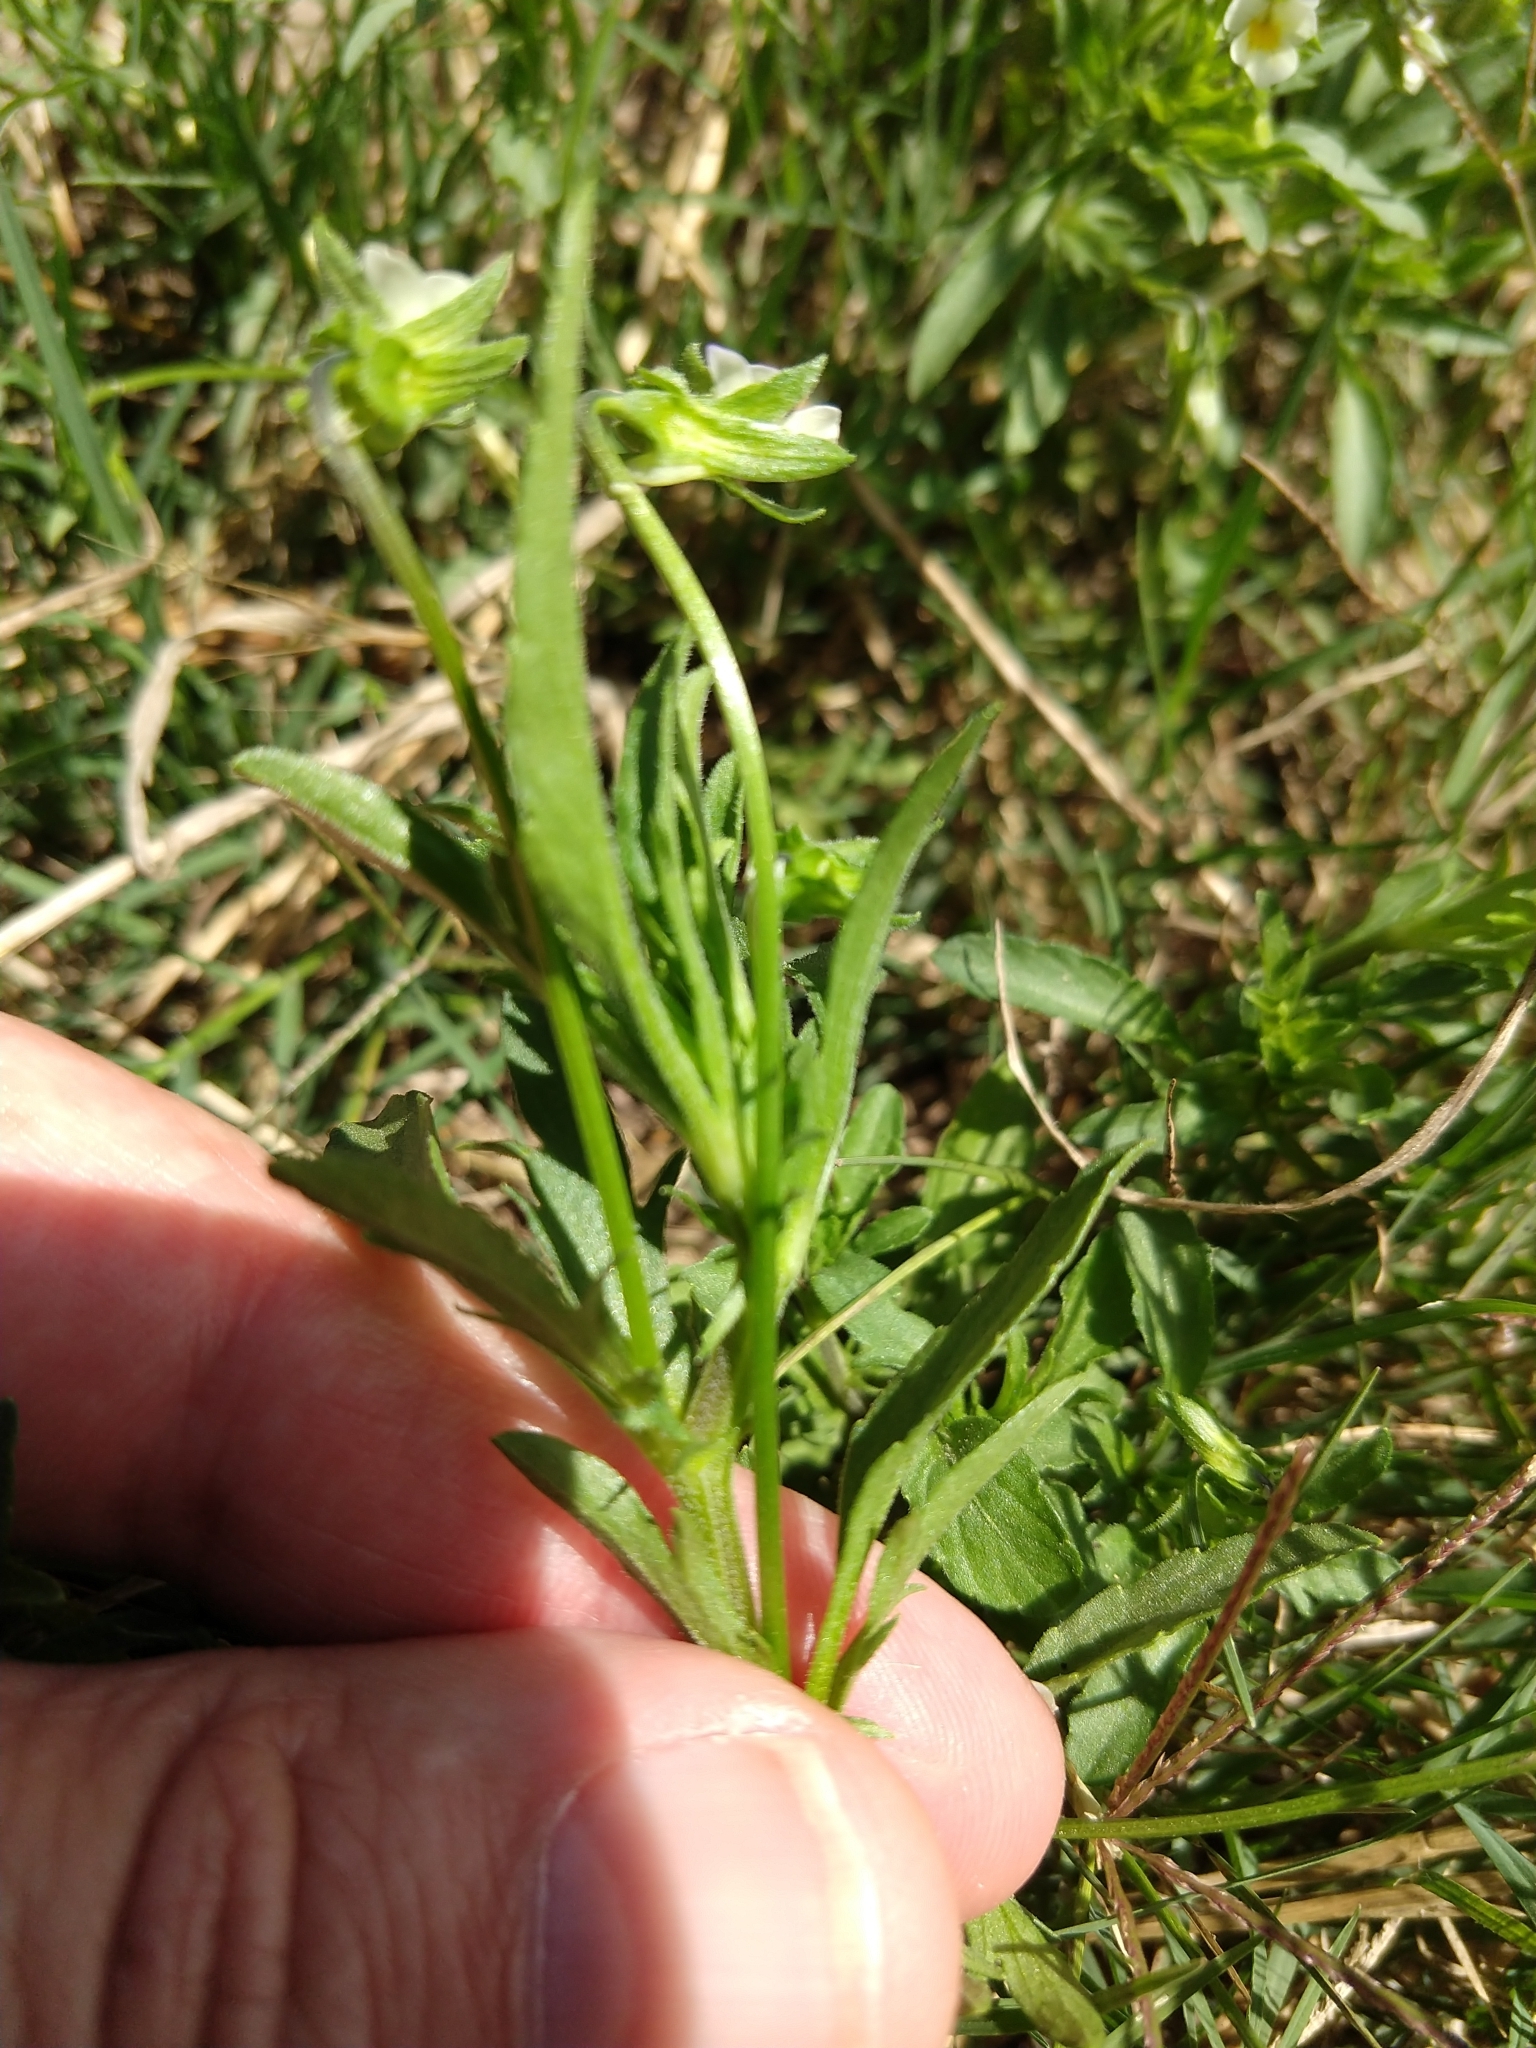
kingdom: Plantae
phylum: Tracheophyta
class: Magnoliopsida
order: Malpighiales
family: Violaceae
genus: Viola
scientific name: Viola arvensis
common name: Field pansy
